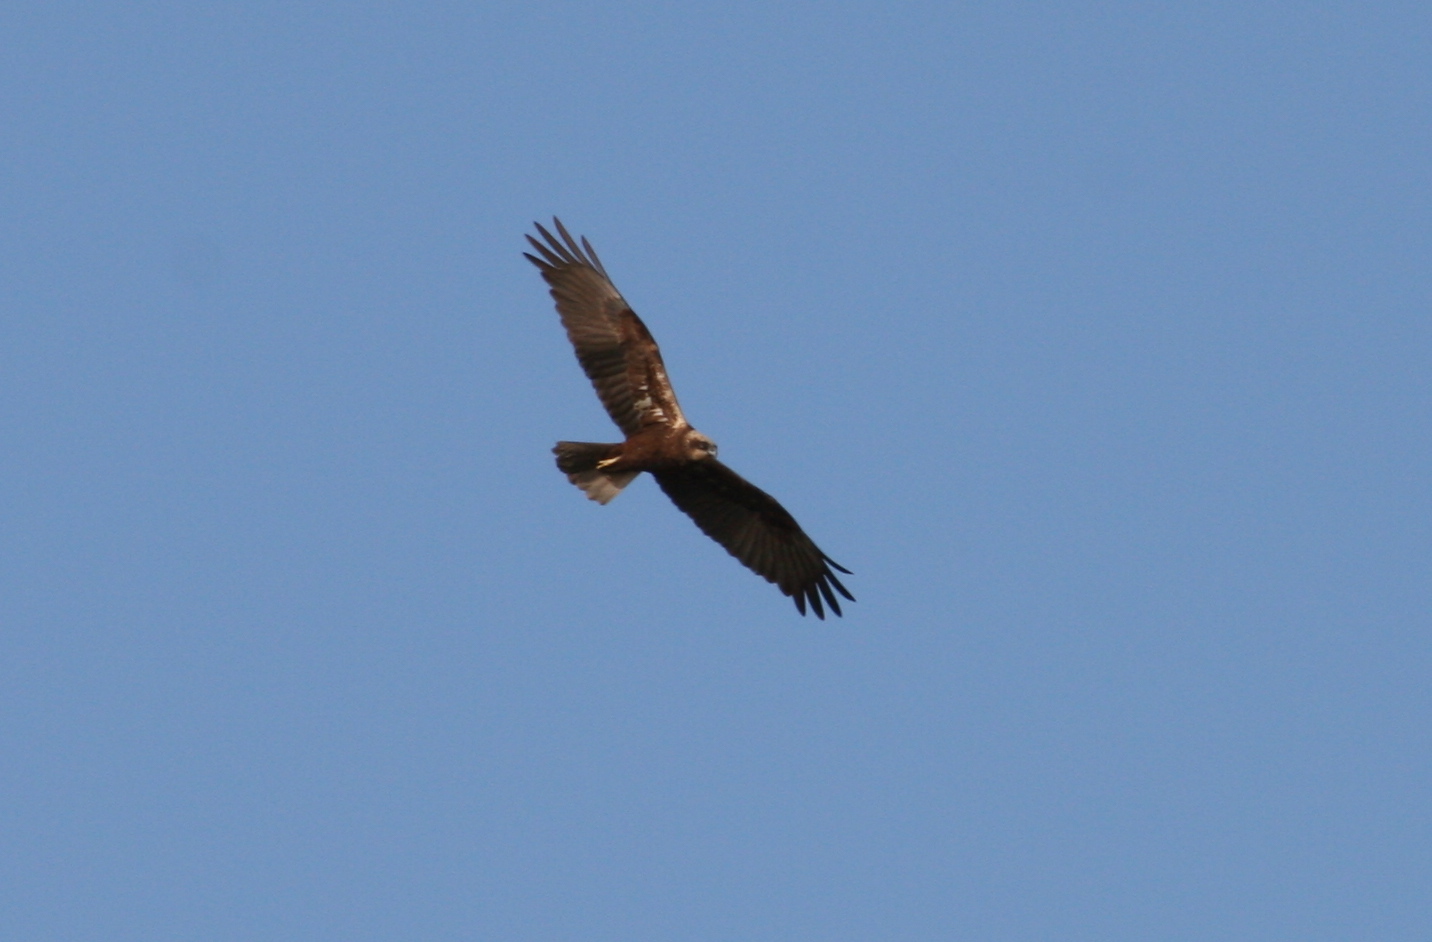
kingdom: Animalia
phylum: Chordata
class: Aves
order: Accipitriformes
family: Accipitridae
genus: Circus
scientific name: Circus aeruginosus
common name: Western marsh harrier
